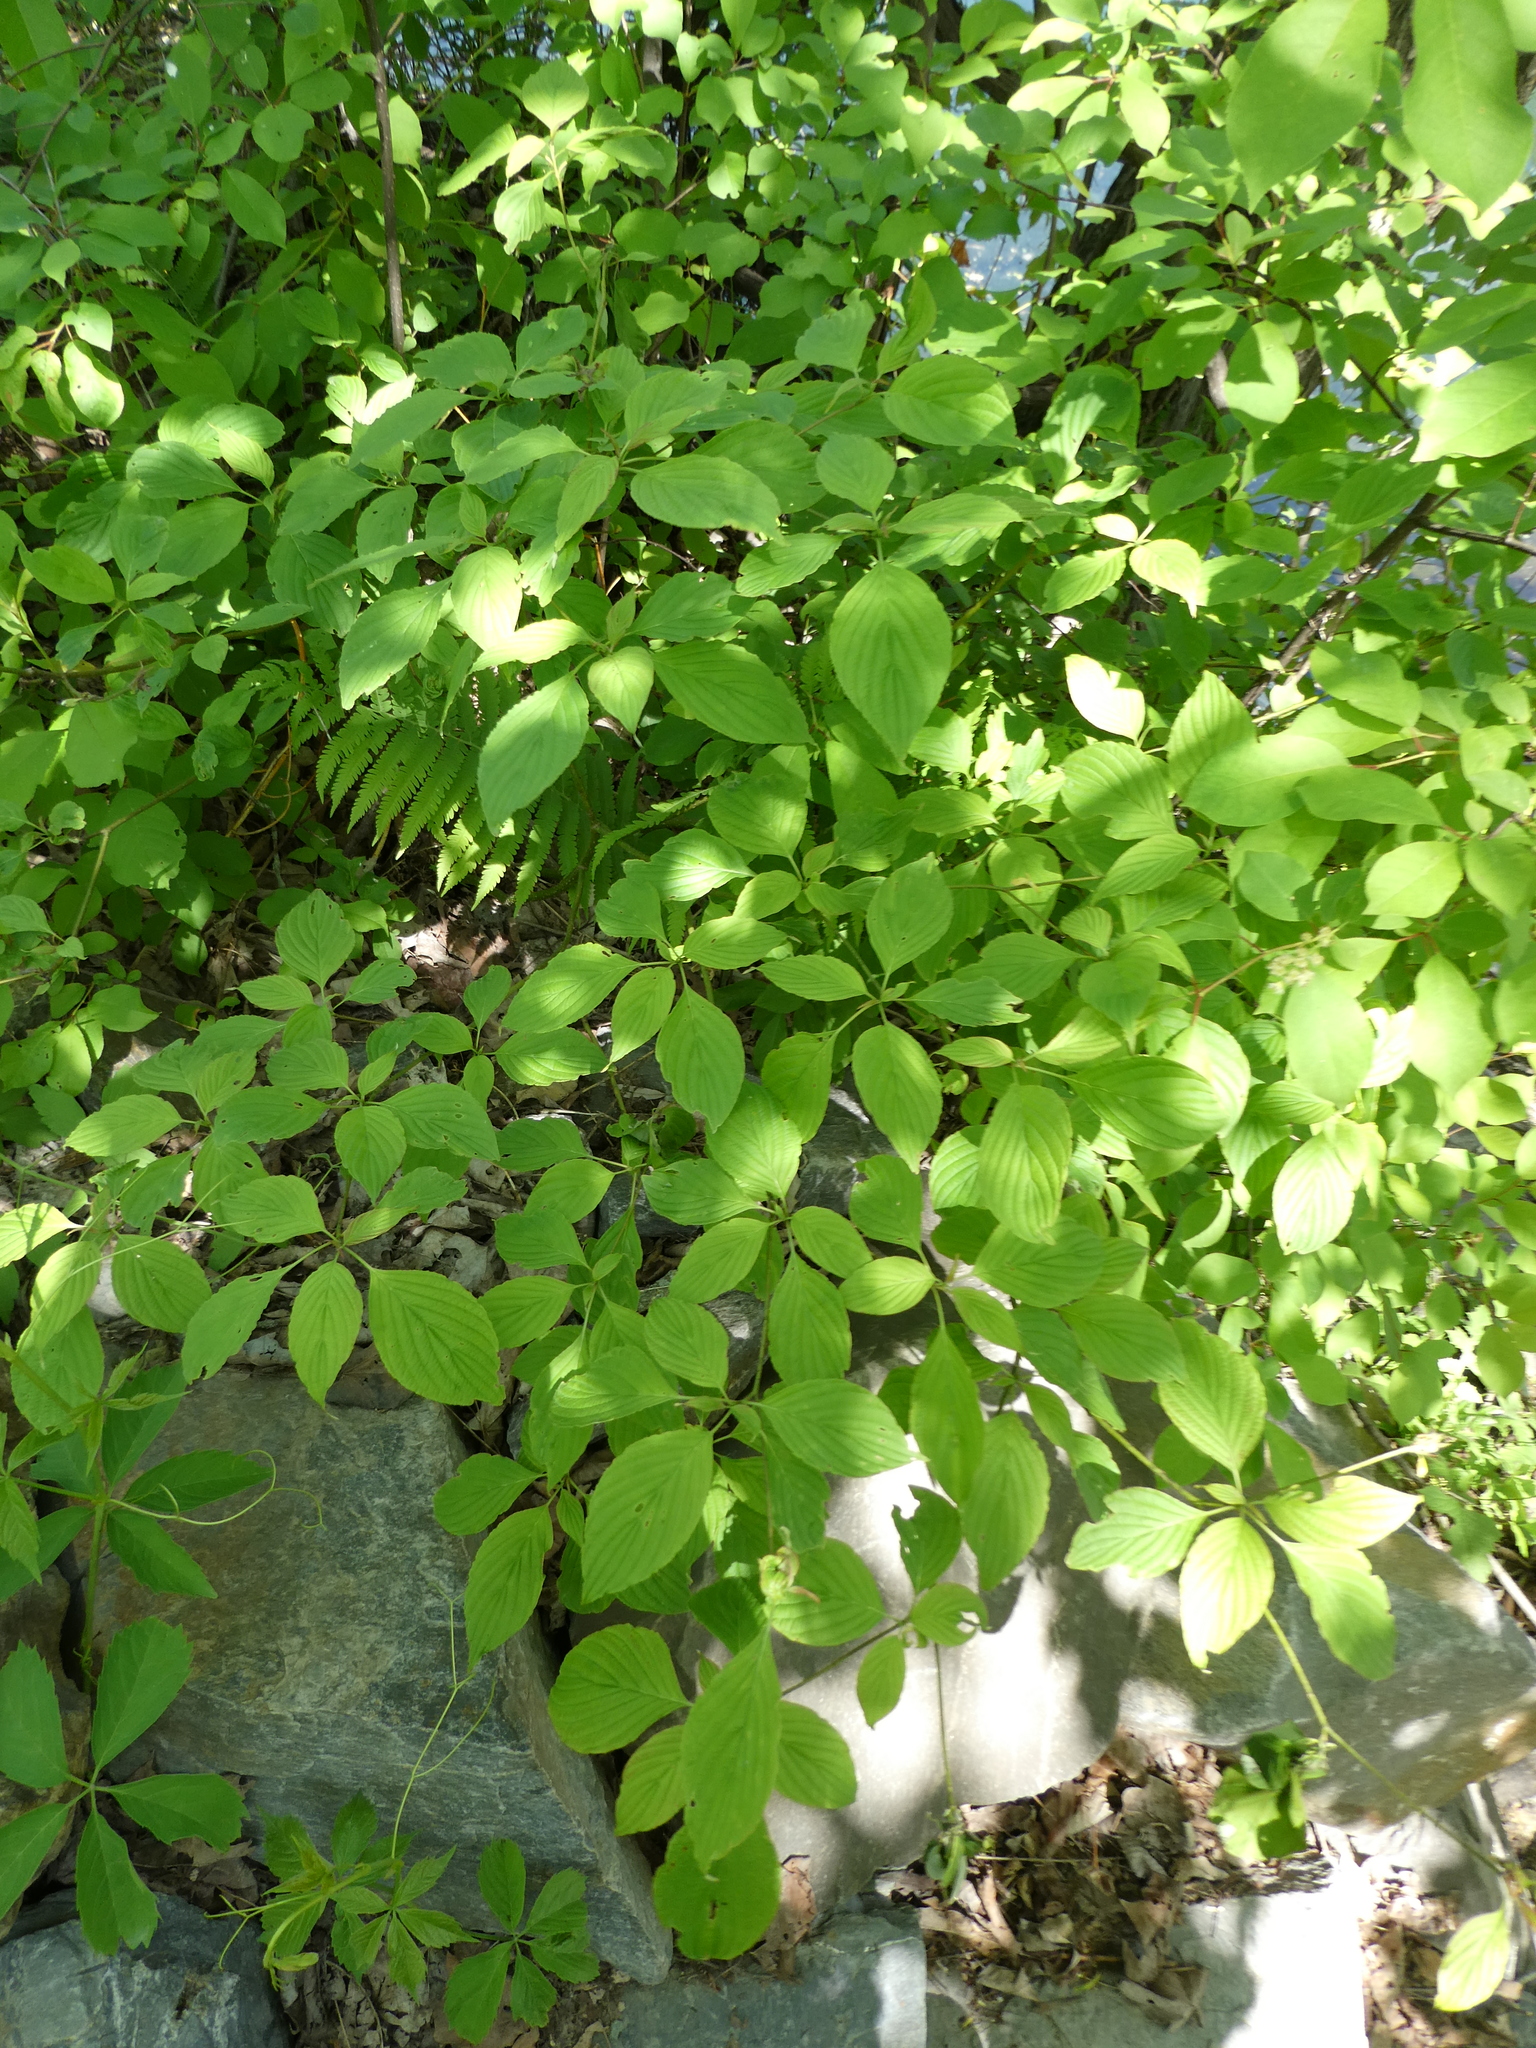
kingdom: Plantae
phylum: Tracheophyta
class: Magnoliopsida
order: Cornales
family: Cornaceae
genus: Cornus
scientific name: Cornus alternifolia
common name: Pagoda dogwood
